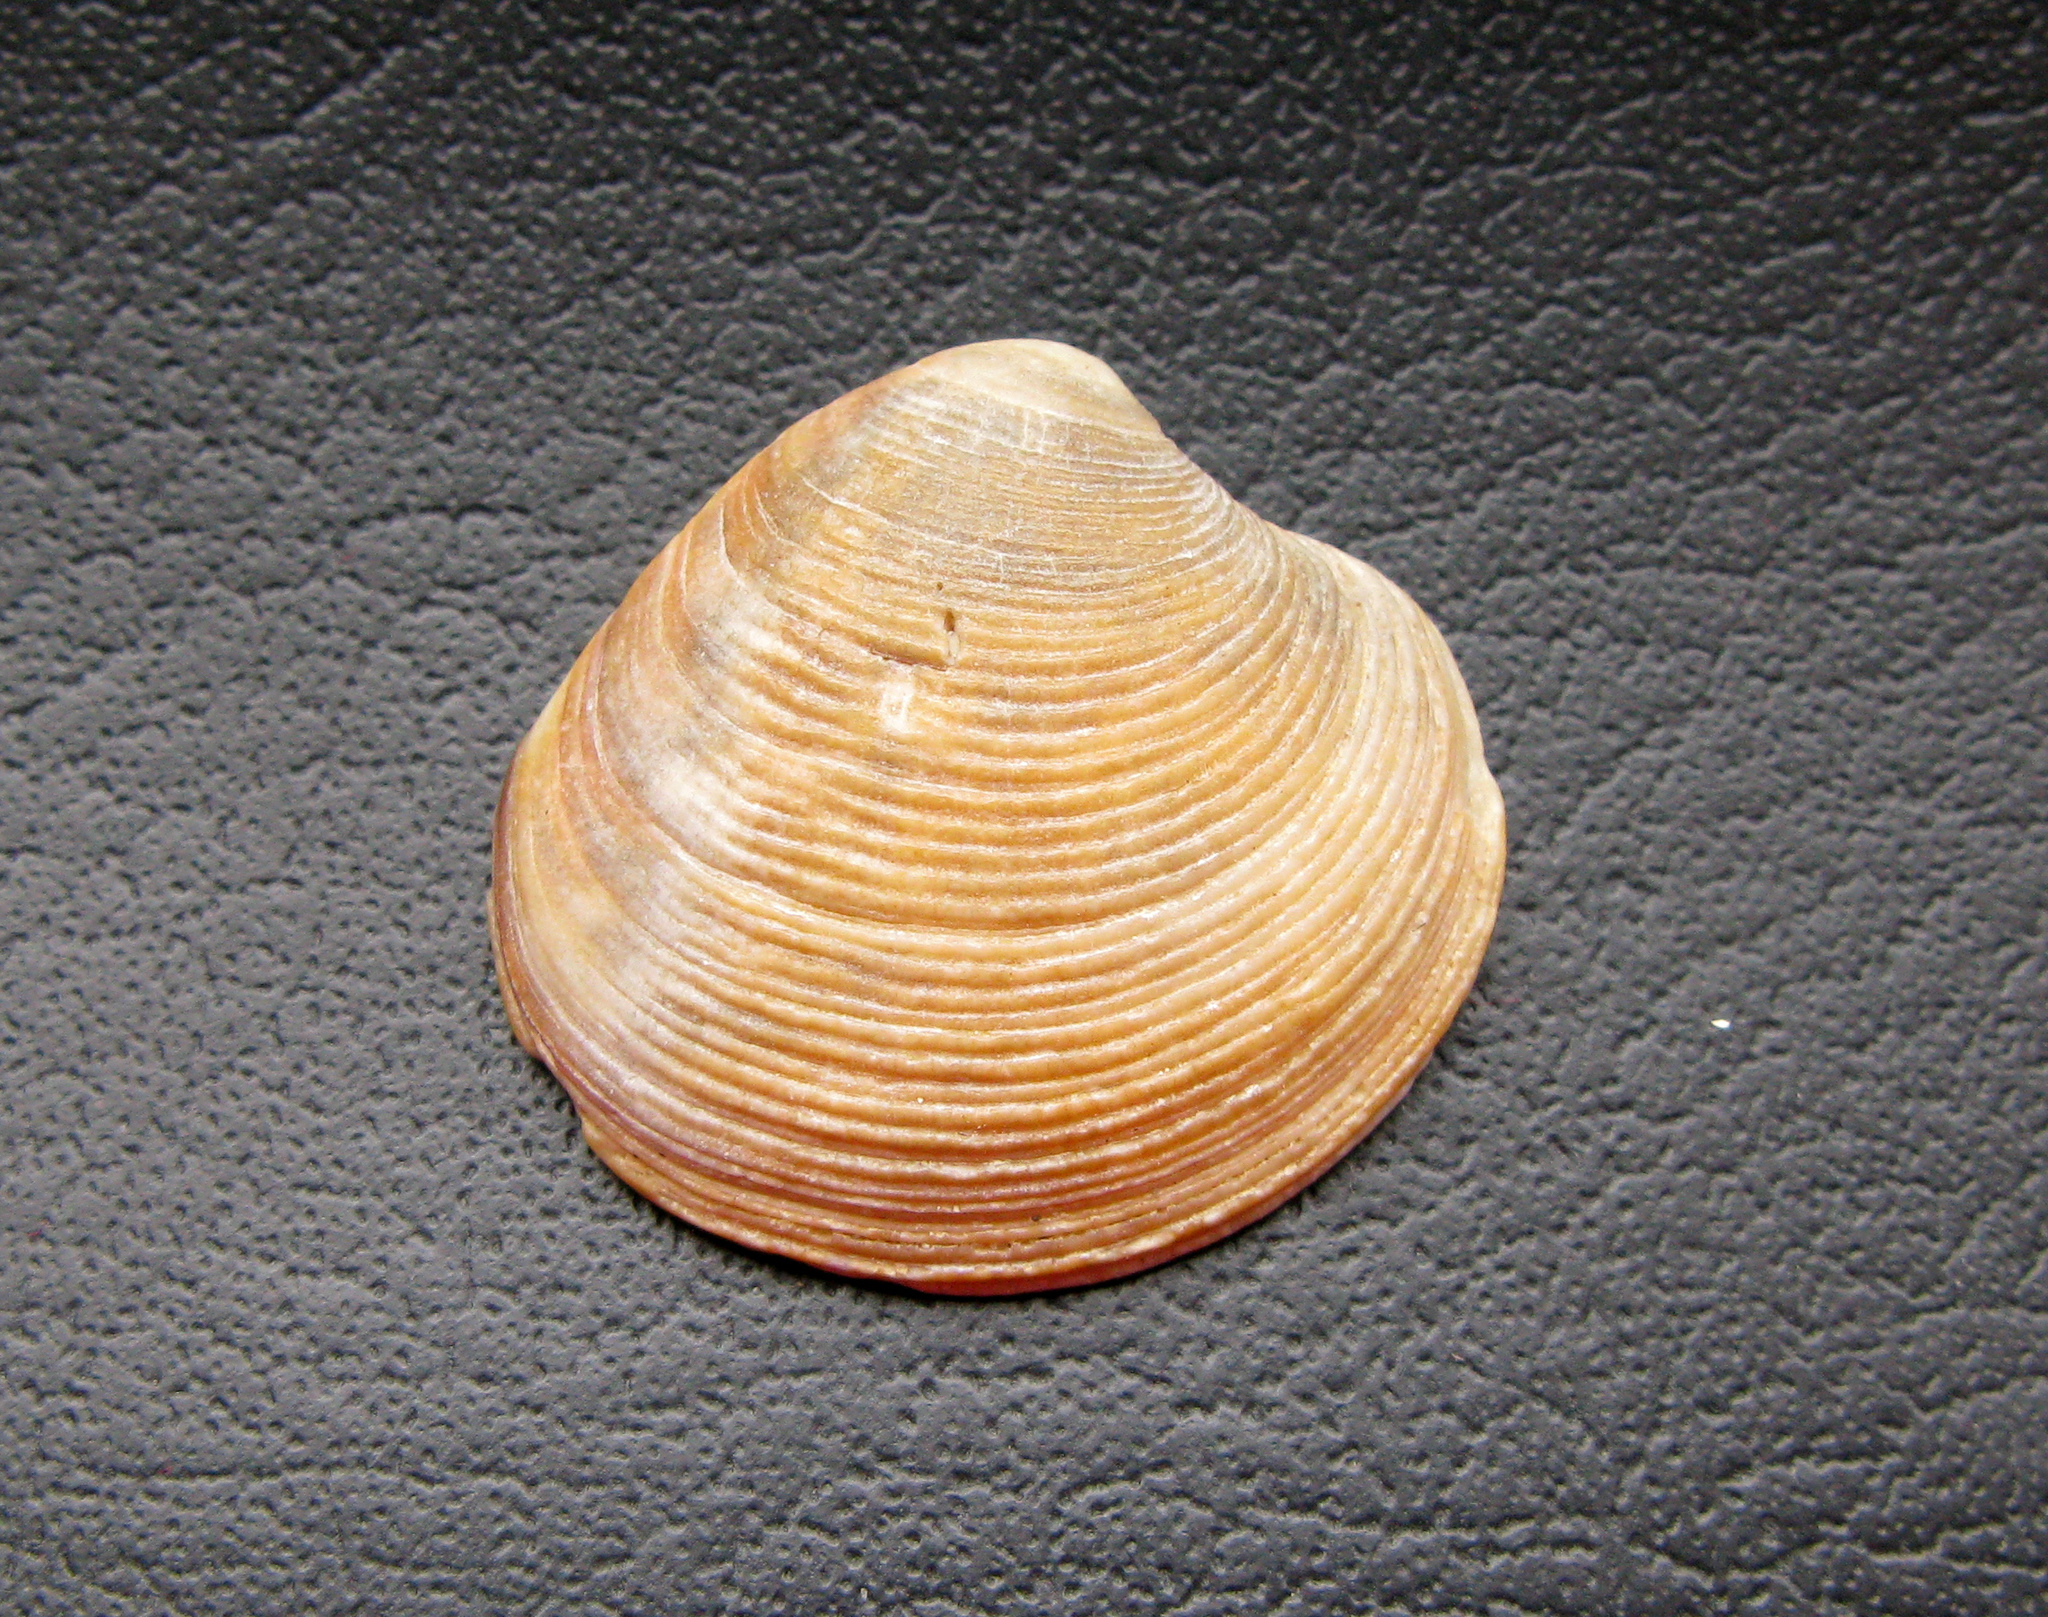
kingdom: Animalia
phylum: Mollusca
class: Bivalvia
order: Venerida
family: Veneridae
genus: Chamelea
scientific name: Chamelea gallina
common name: Chicken venus
